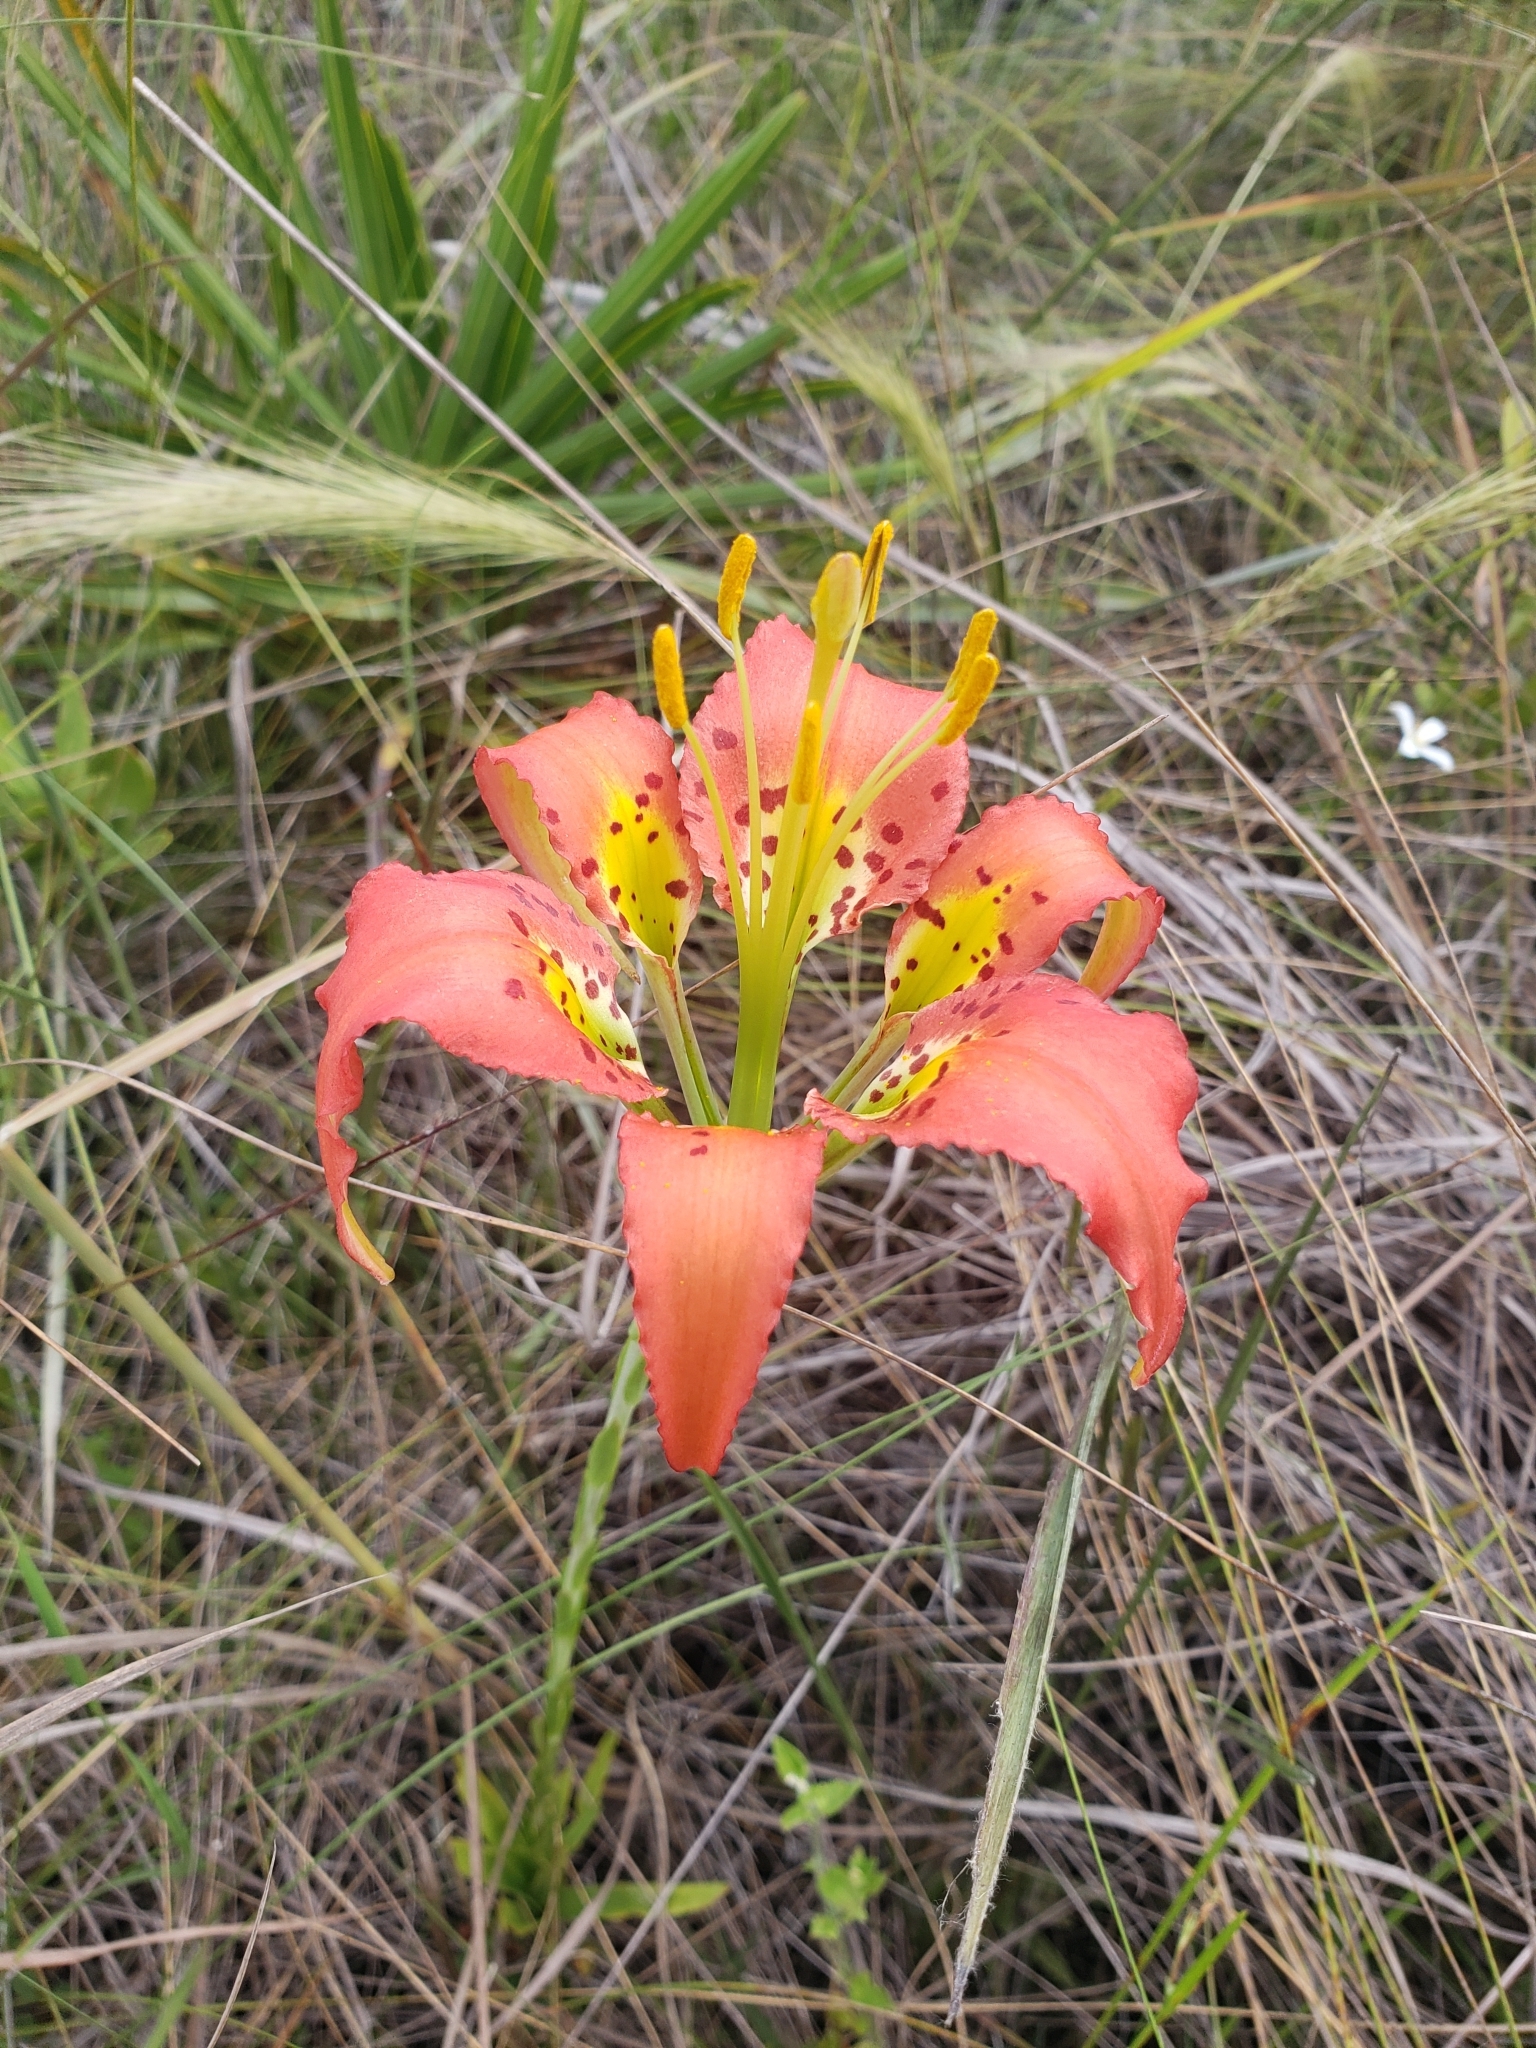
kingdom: Plantae
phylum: Tracheophyta
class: Liliopsida
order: Liliales
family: Liliaceae
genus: Lilium
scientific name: Lilium catesbaei
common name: Catesby's lily
